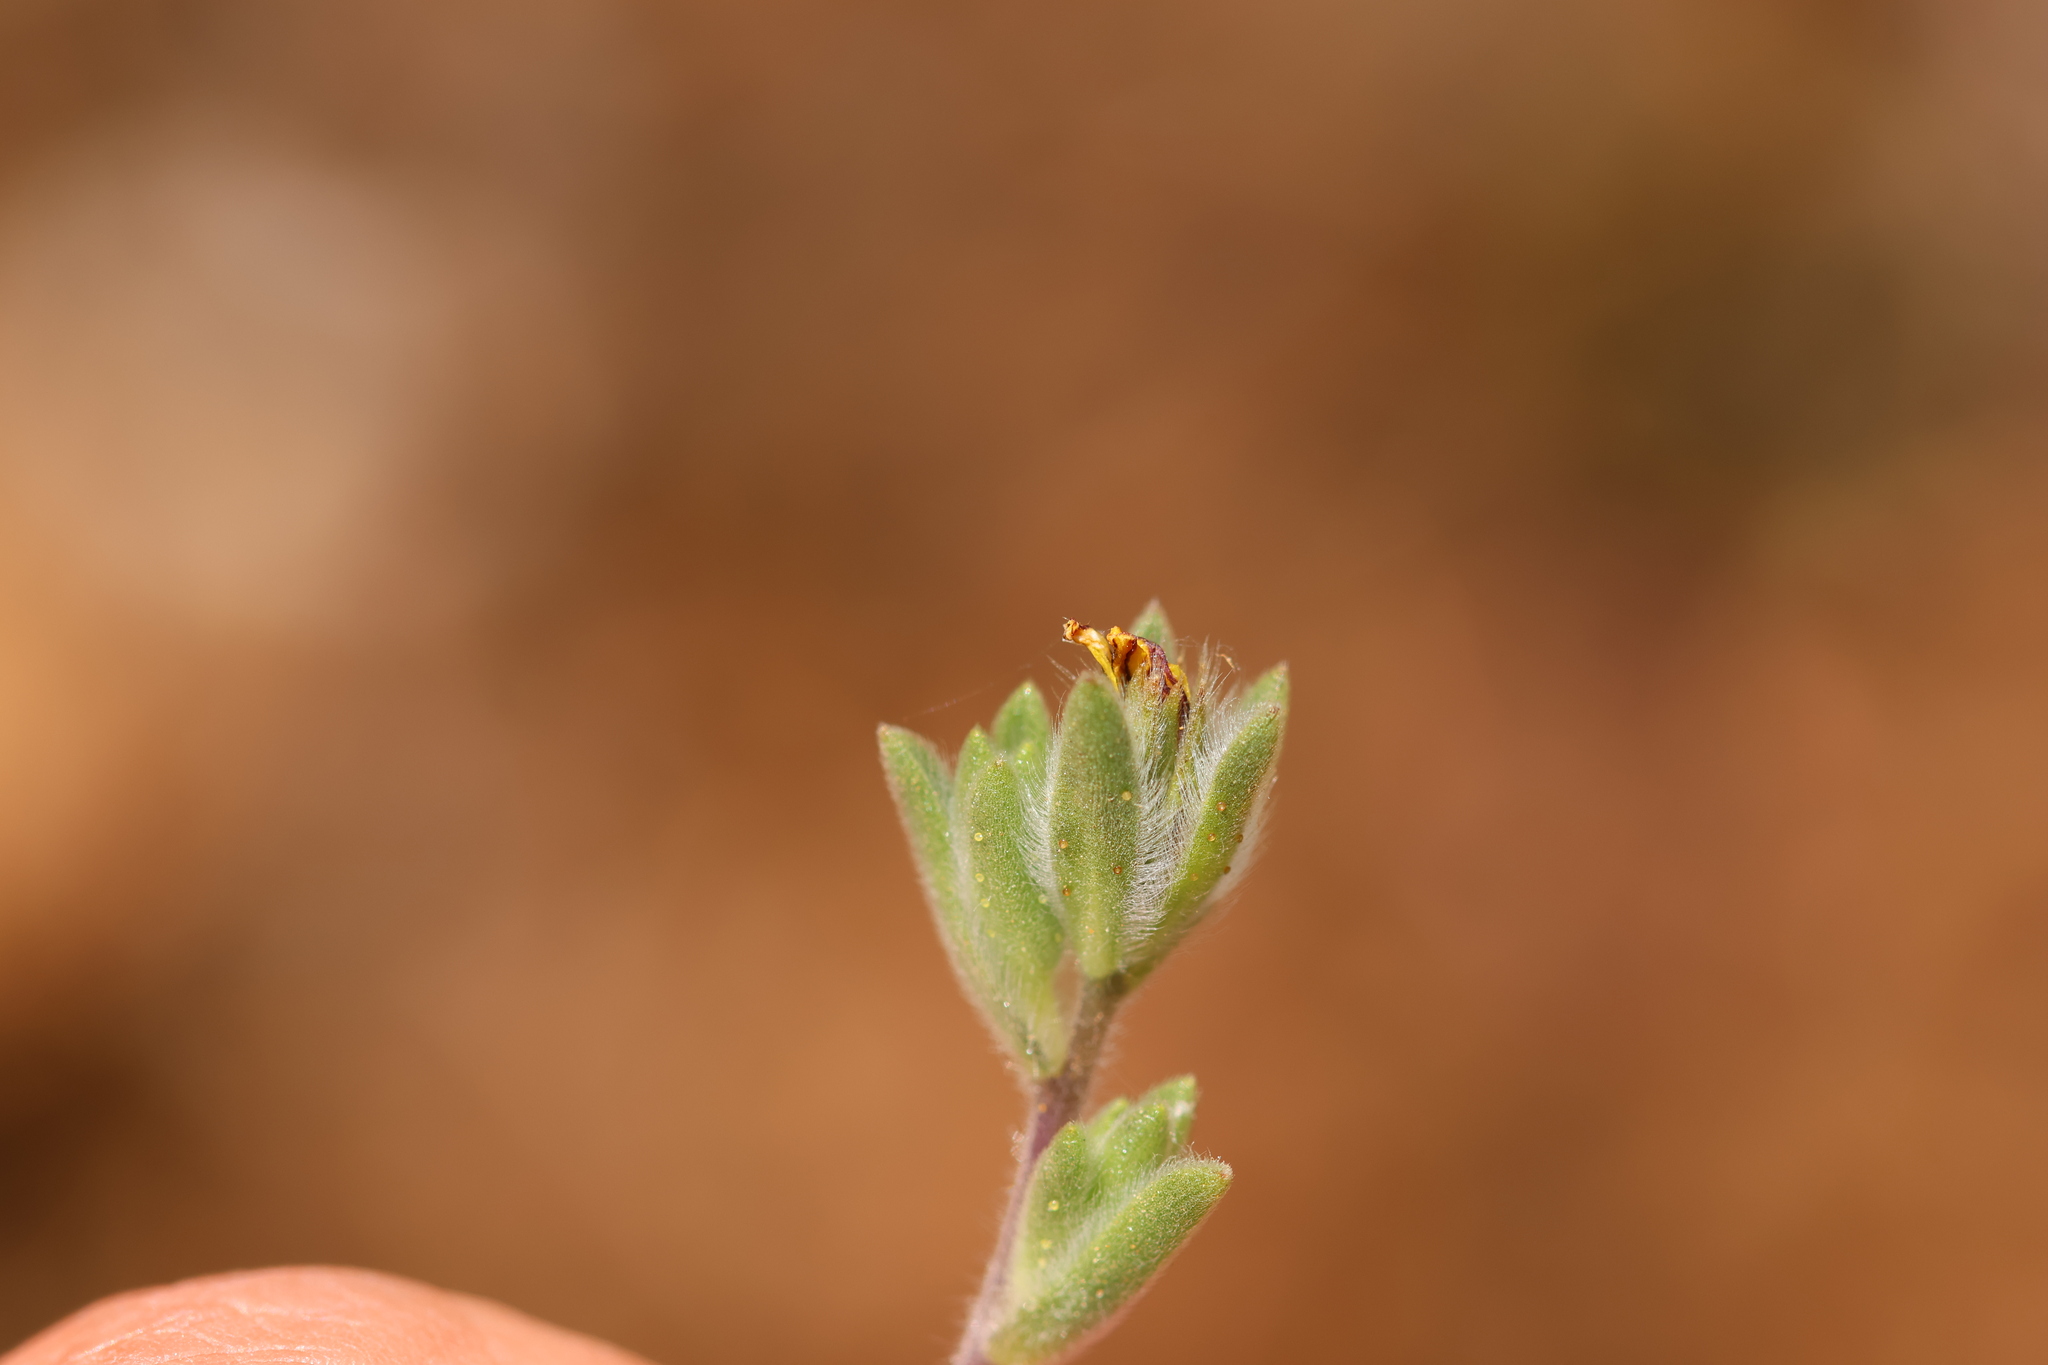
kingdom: Plantae
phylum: Tracheophyta
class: Magnoliopsida
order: Asterales
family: Asteraceae
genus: Lagophylla
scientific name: Lagophylla ramosissima
